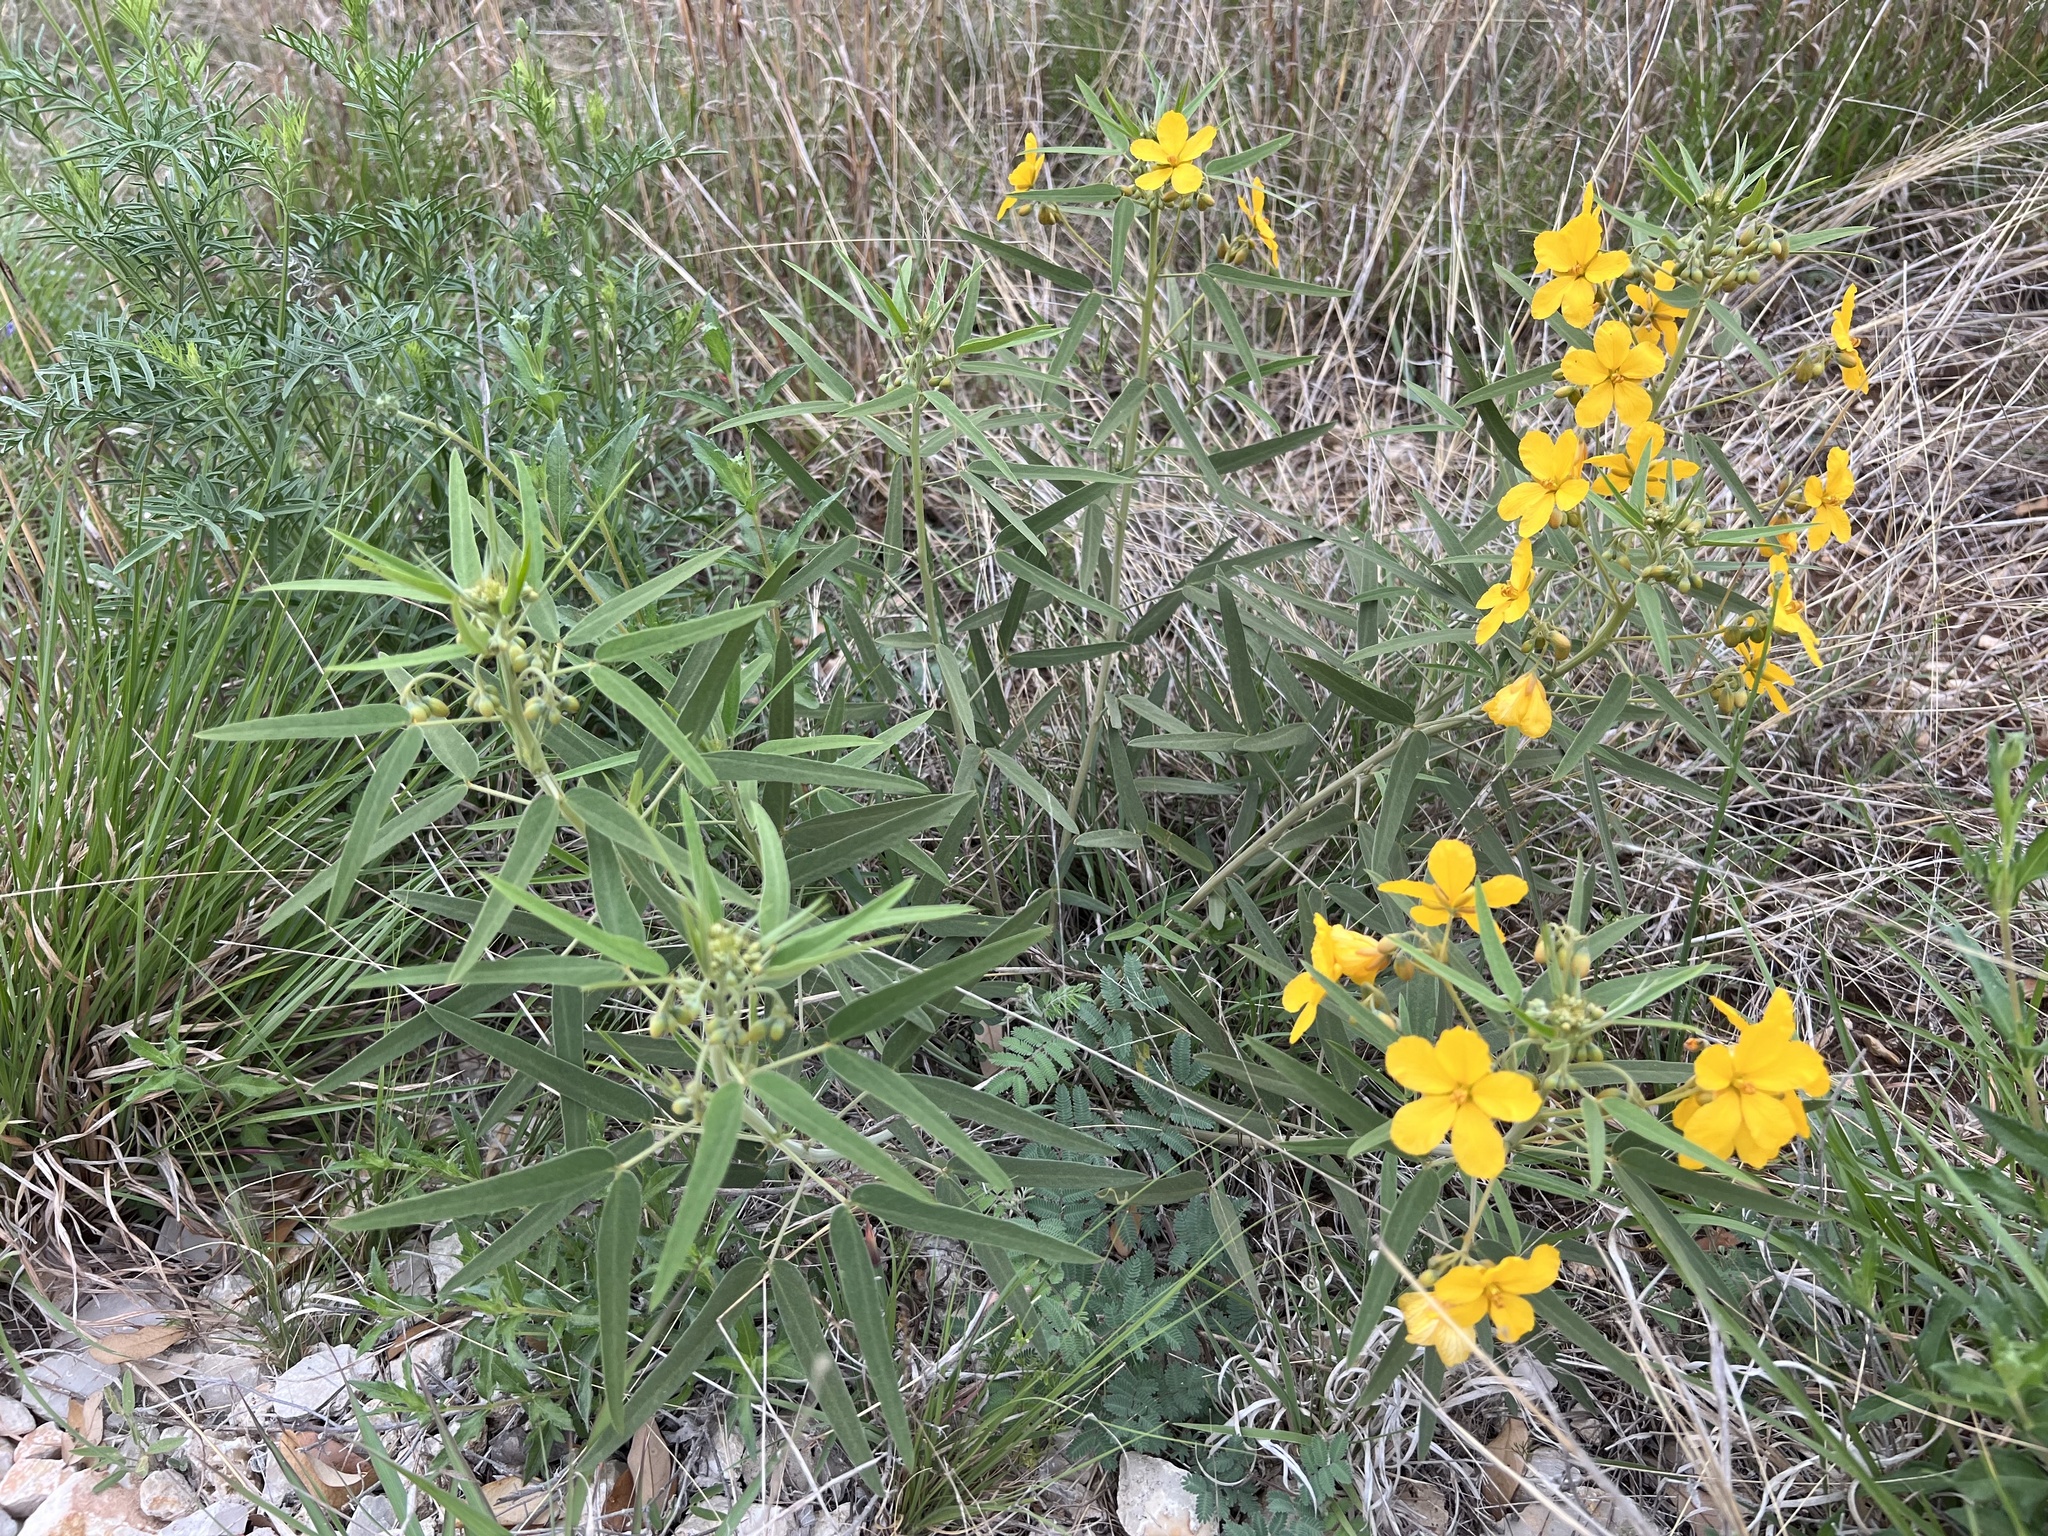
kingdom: Plantae
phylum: Tracheophyta
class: Magnoliopsida
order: Fabales
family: Fabaceae
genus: Senna
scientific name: Senna roemeriana
